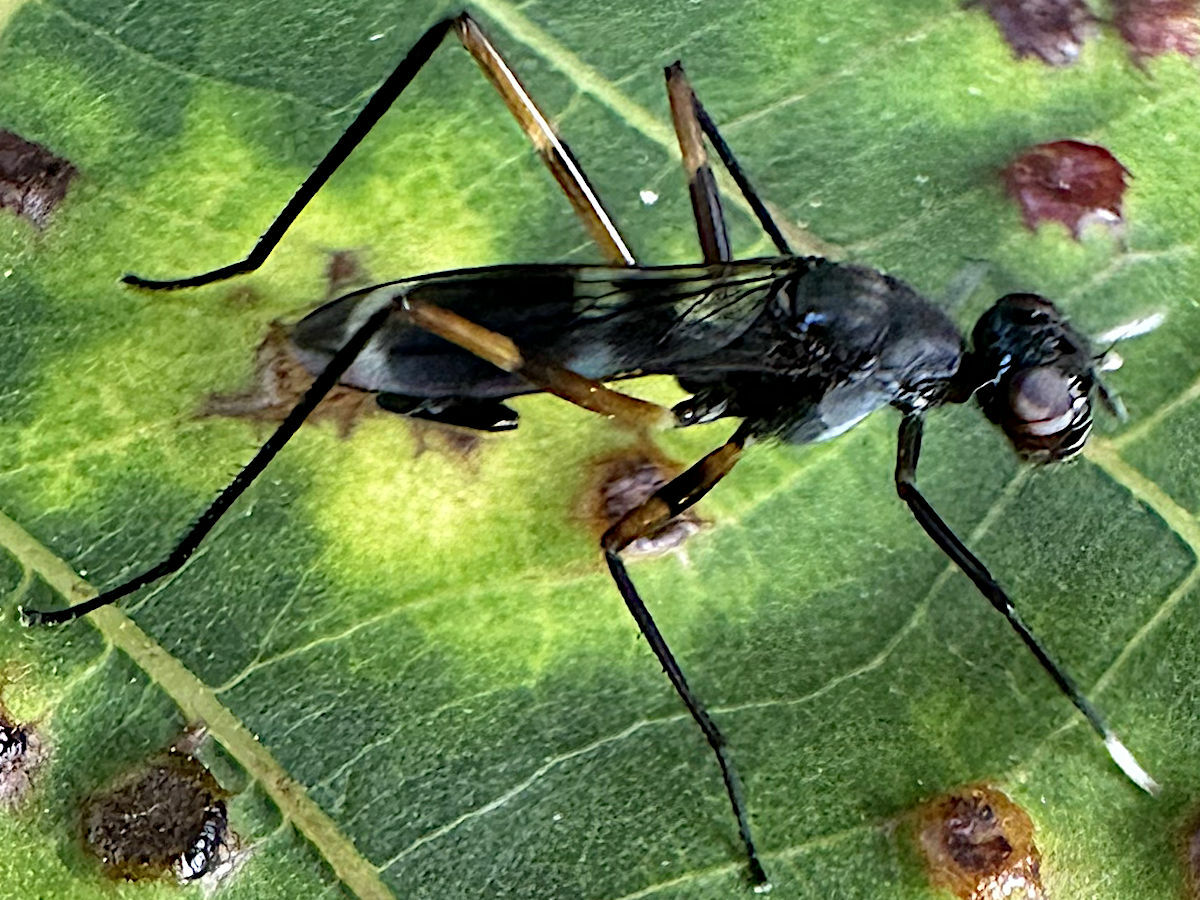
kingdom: Animalia
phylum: Arthropoda
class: Insecta
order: Diptera
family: Micropezidae
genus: Taeniaptera
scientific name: Taeniaptera trivittata
